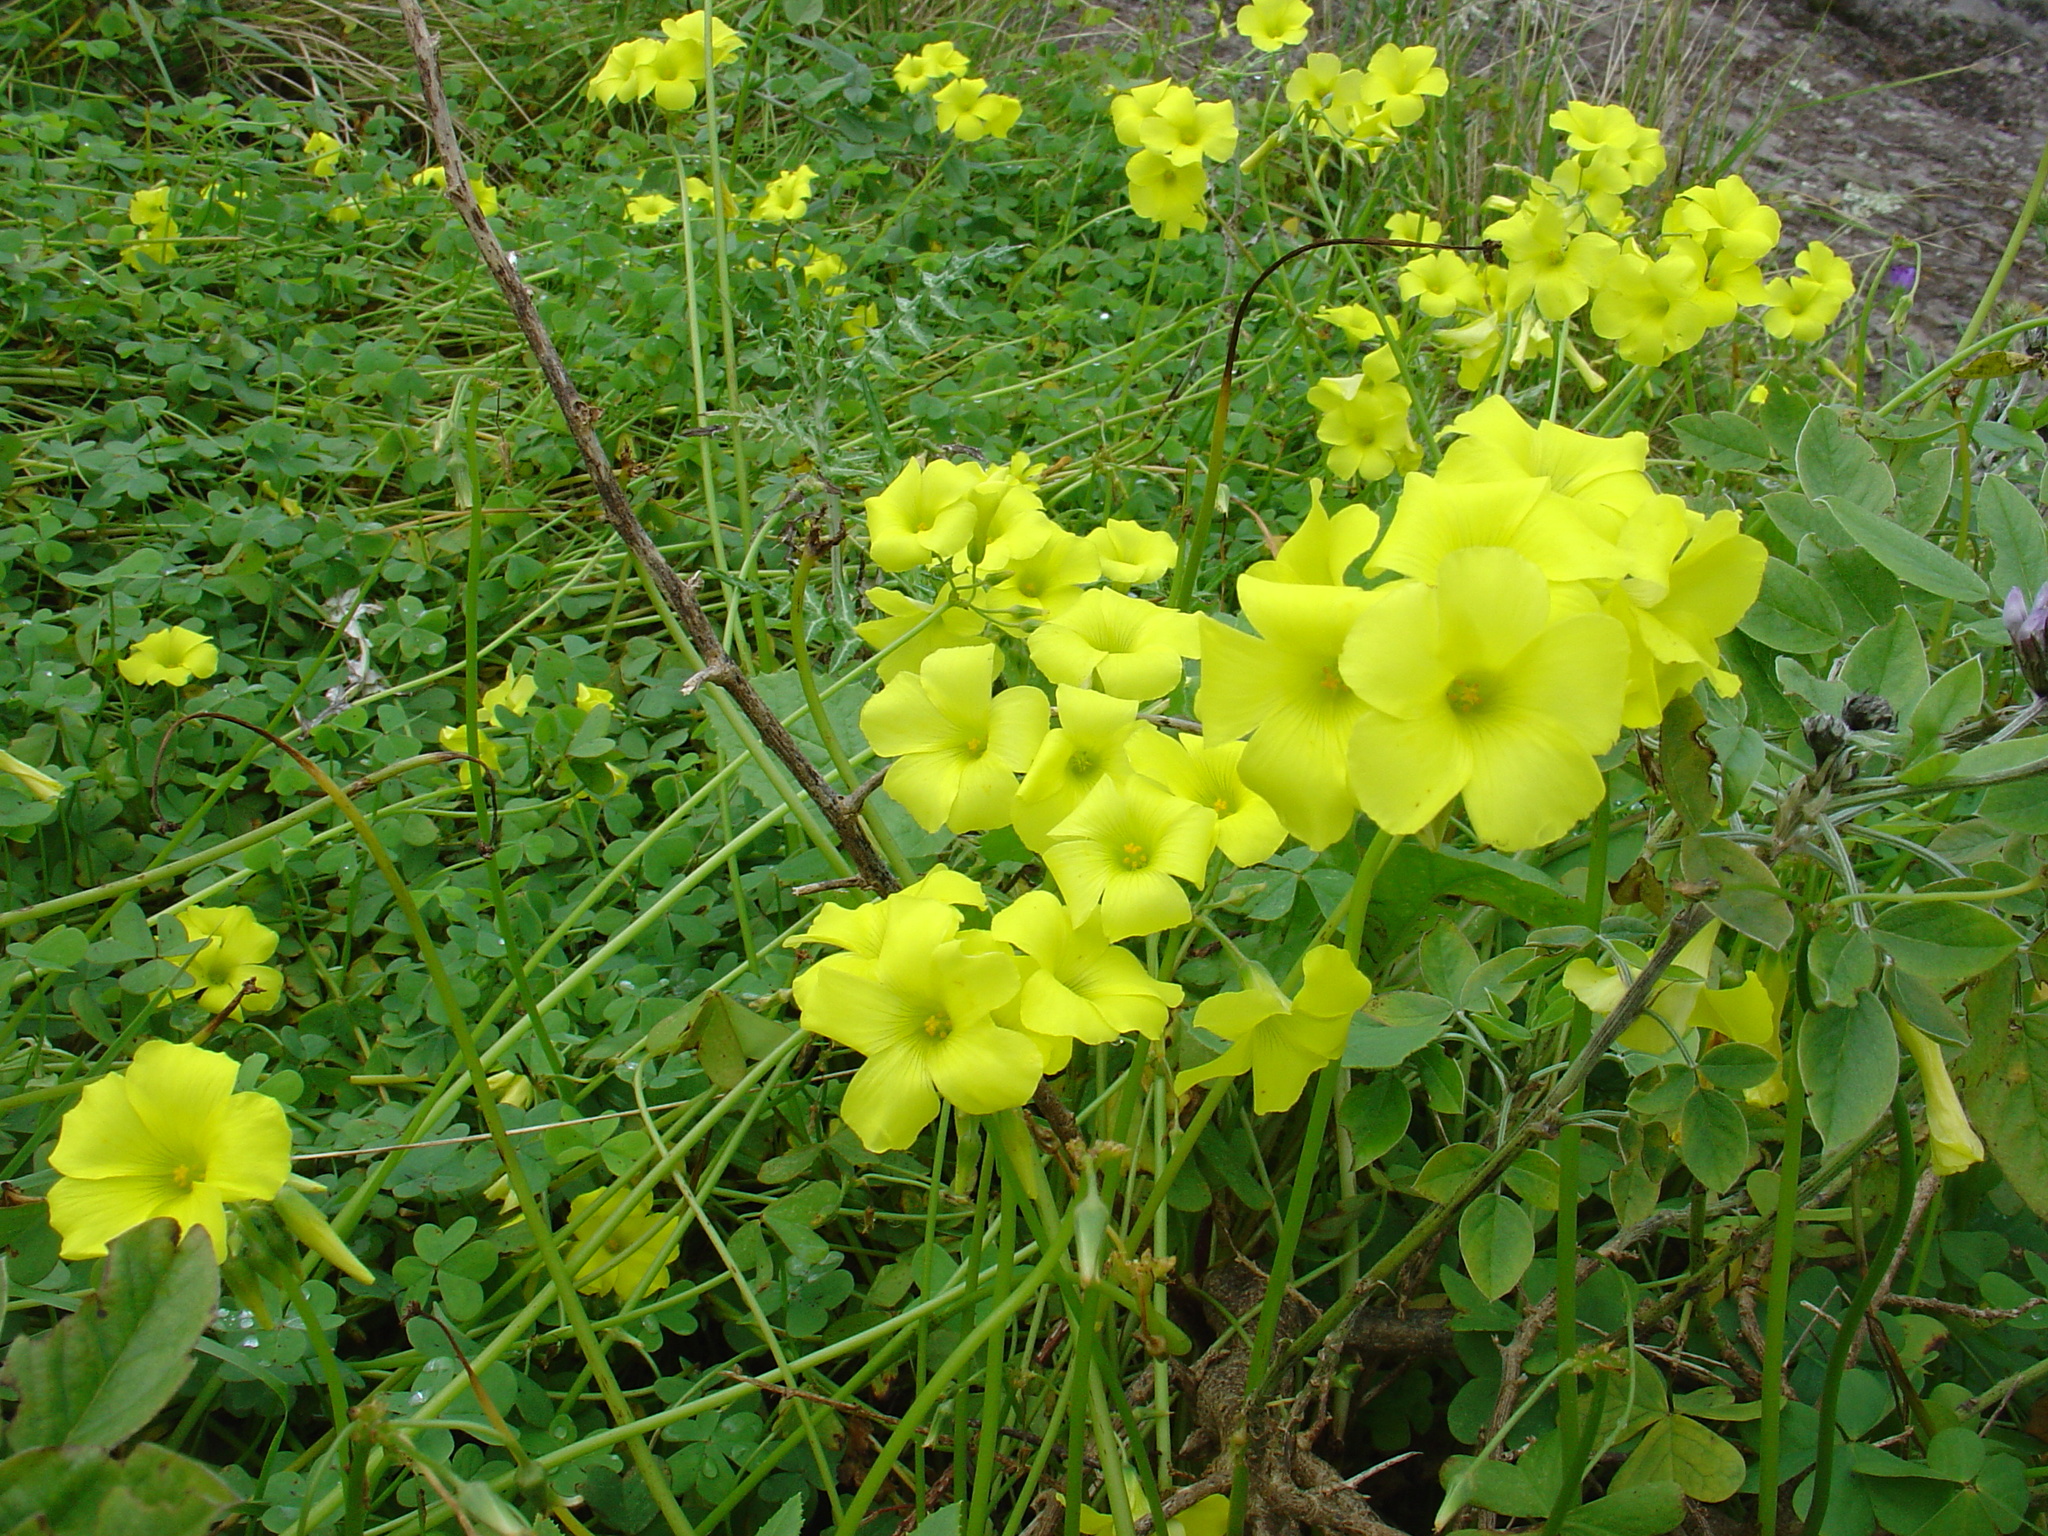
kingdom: Plantae
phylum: Tracheophyta
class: Magnoliopsida
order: Oxalidales
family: Oxalidaceae
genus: Oxalis
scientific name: Oxalis pes-caprae
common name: Bermuda-buttercup
